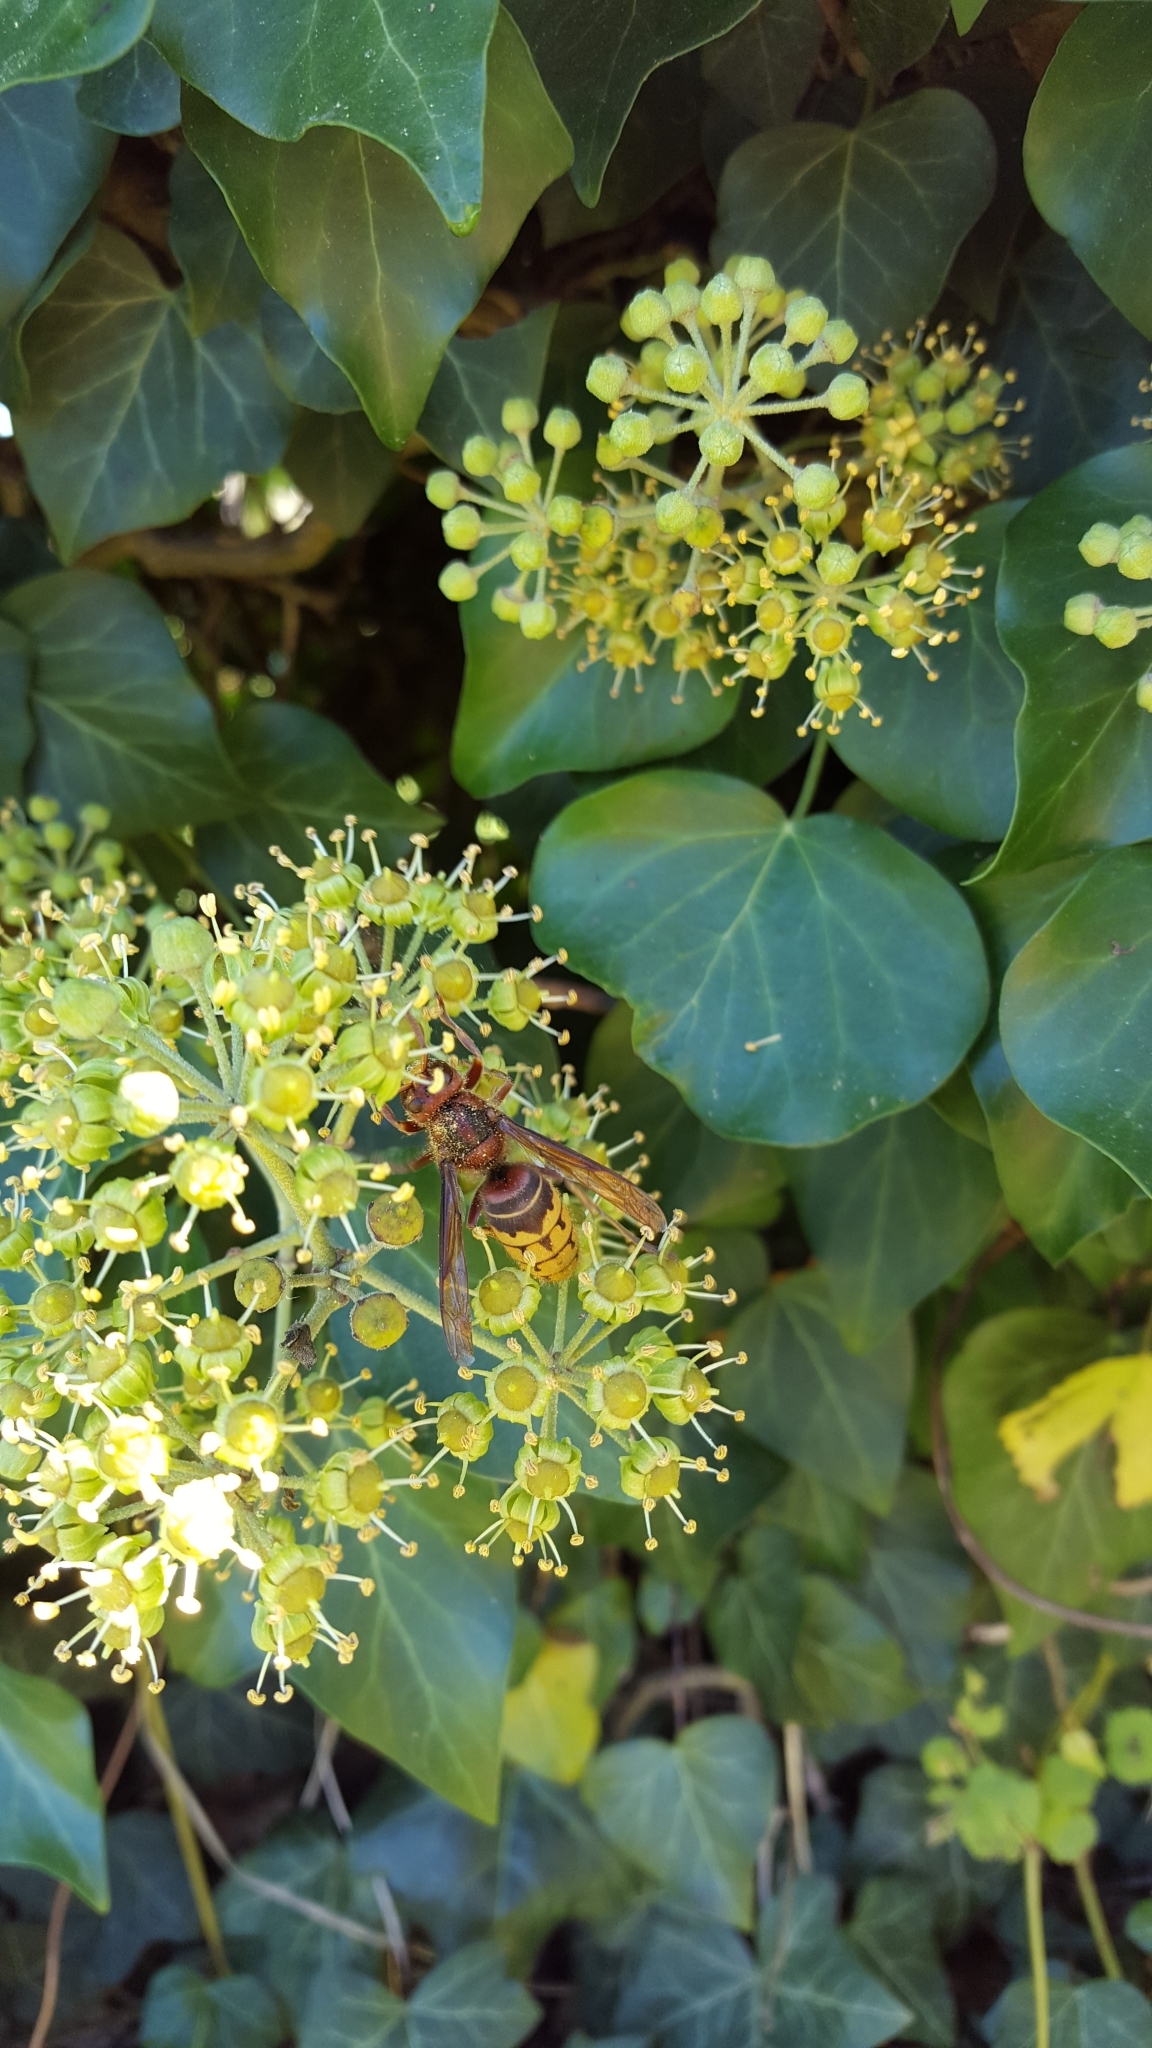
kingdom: Animalia
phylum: Arthropoda
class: Insecta
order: Hymenoptera
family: Vespidae
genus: Vespa
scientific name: Vespa crabro
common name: Hornet
